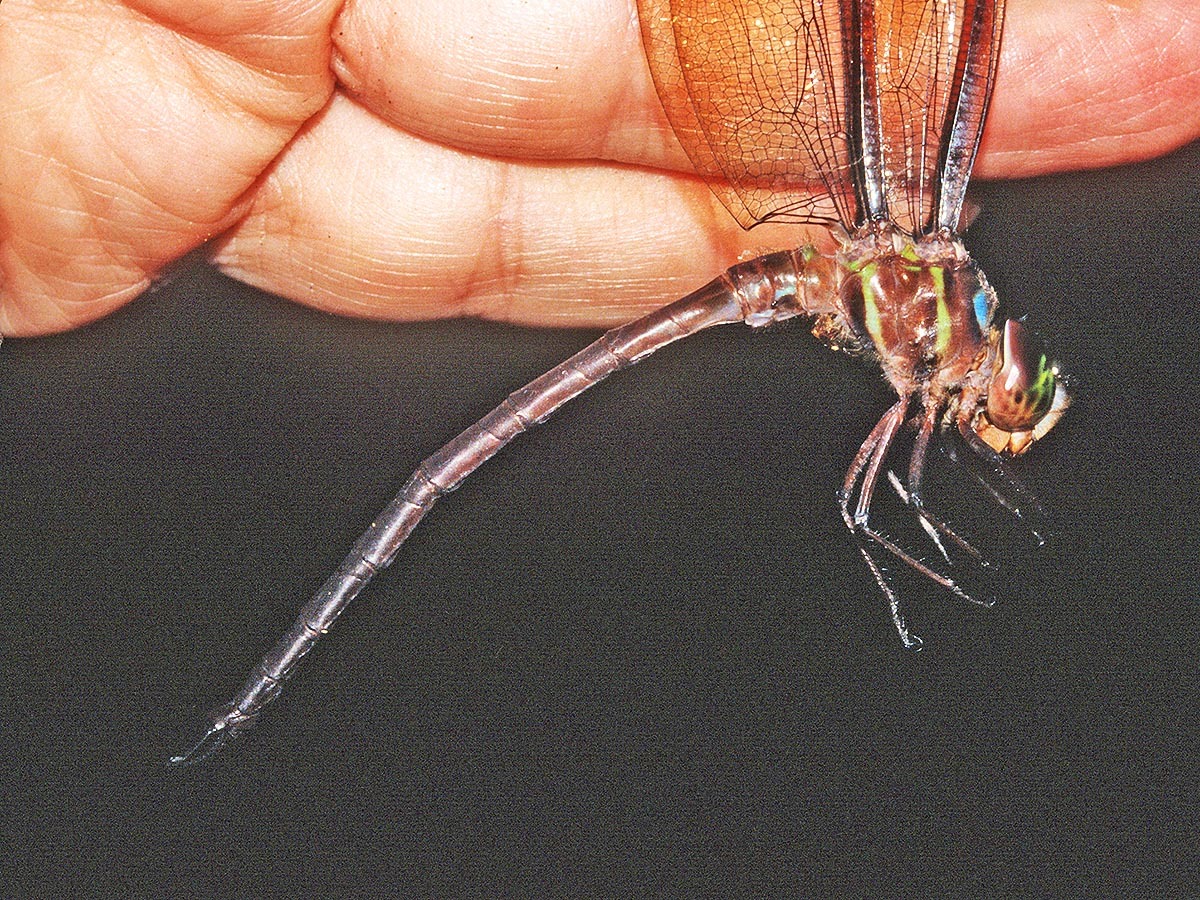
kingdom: Animalia
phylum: Arthropoda
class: Insecta
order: Odonata
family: Aeshnidae
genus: Neuraeschna
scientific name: Neuraeschna calverti
